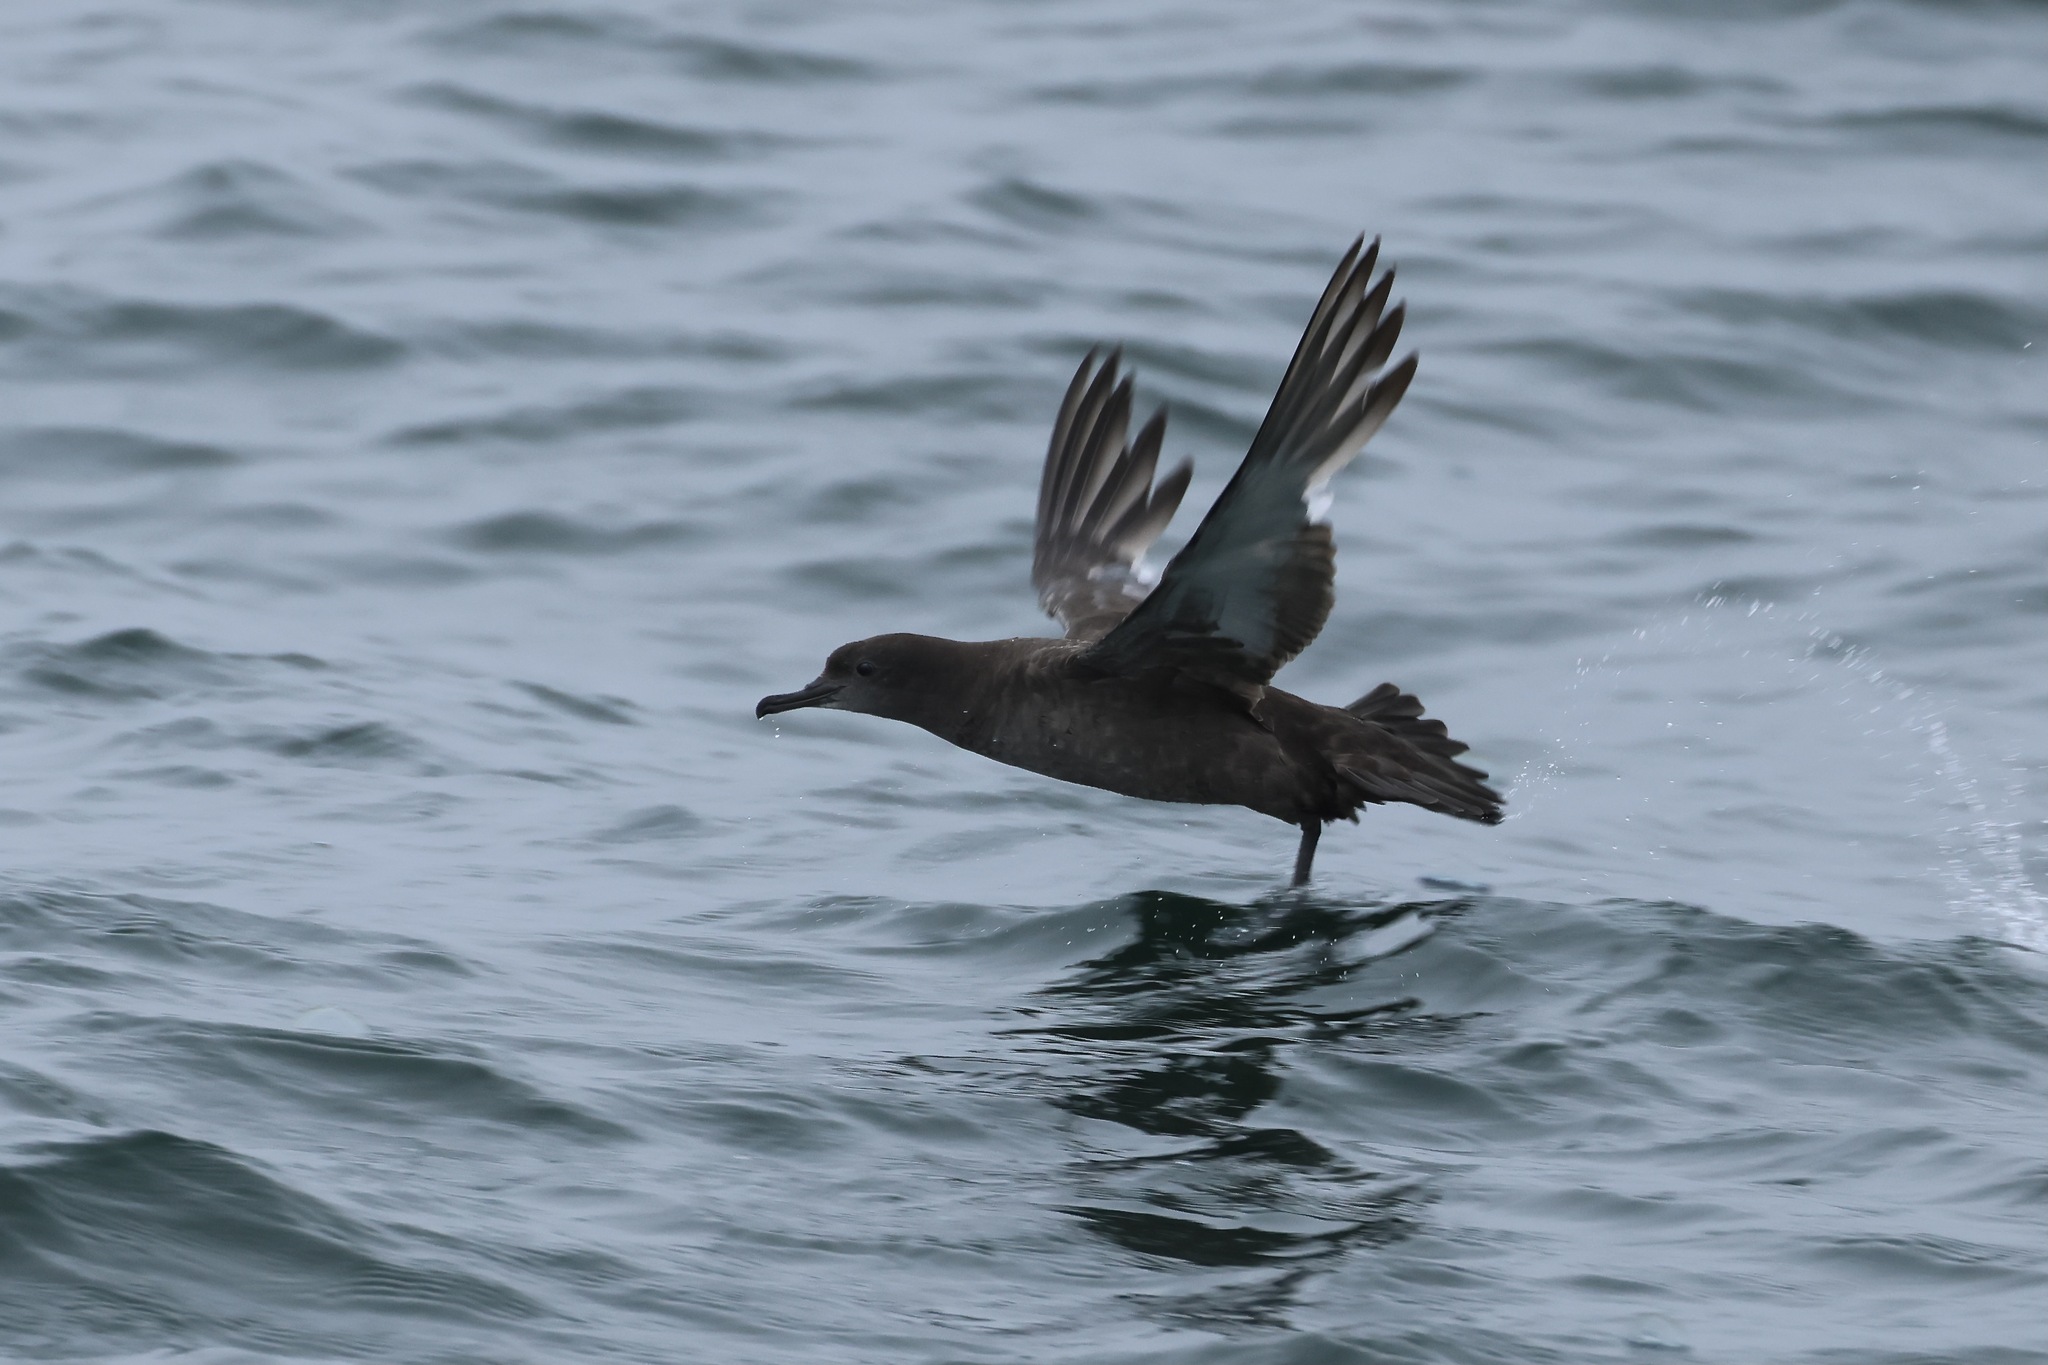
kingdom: Animalia
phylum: Chordata
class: Aves
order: Procellariiformes
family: Procellariidae
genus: Puffinus
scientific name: Puffinus griseus
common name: Sooty shearwater
